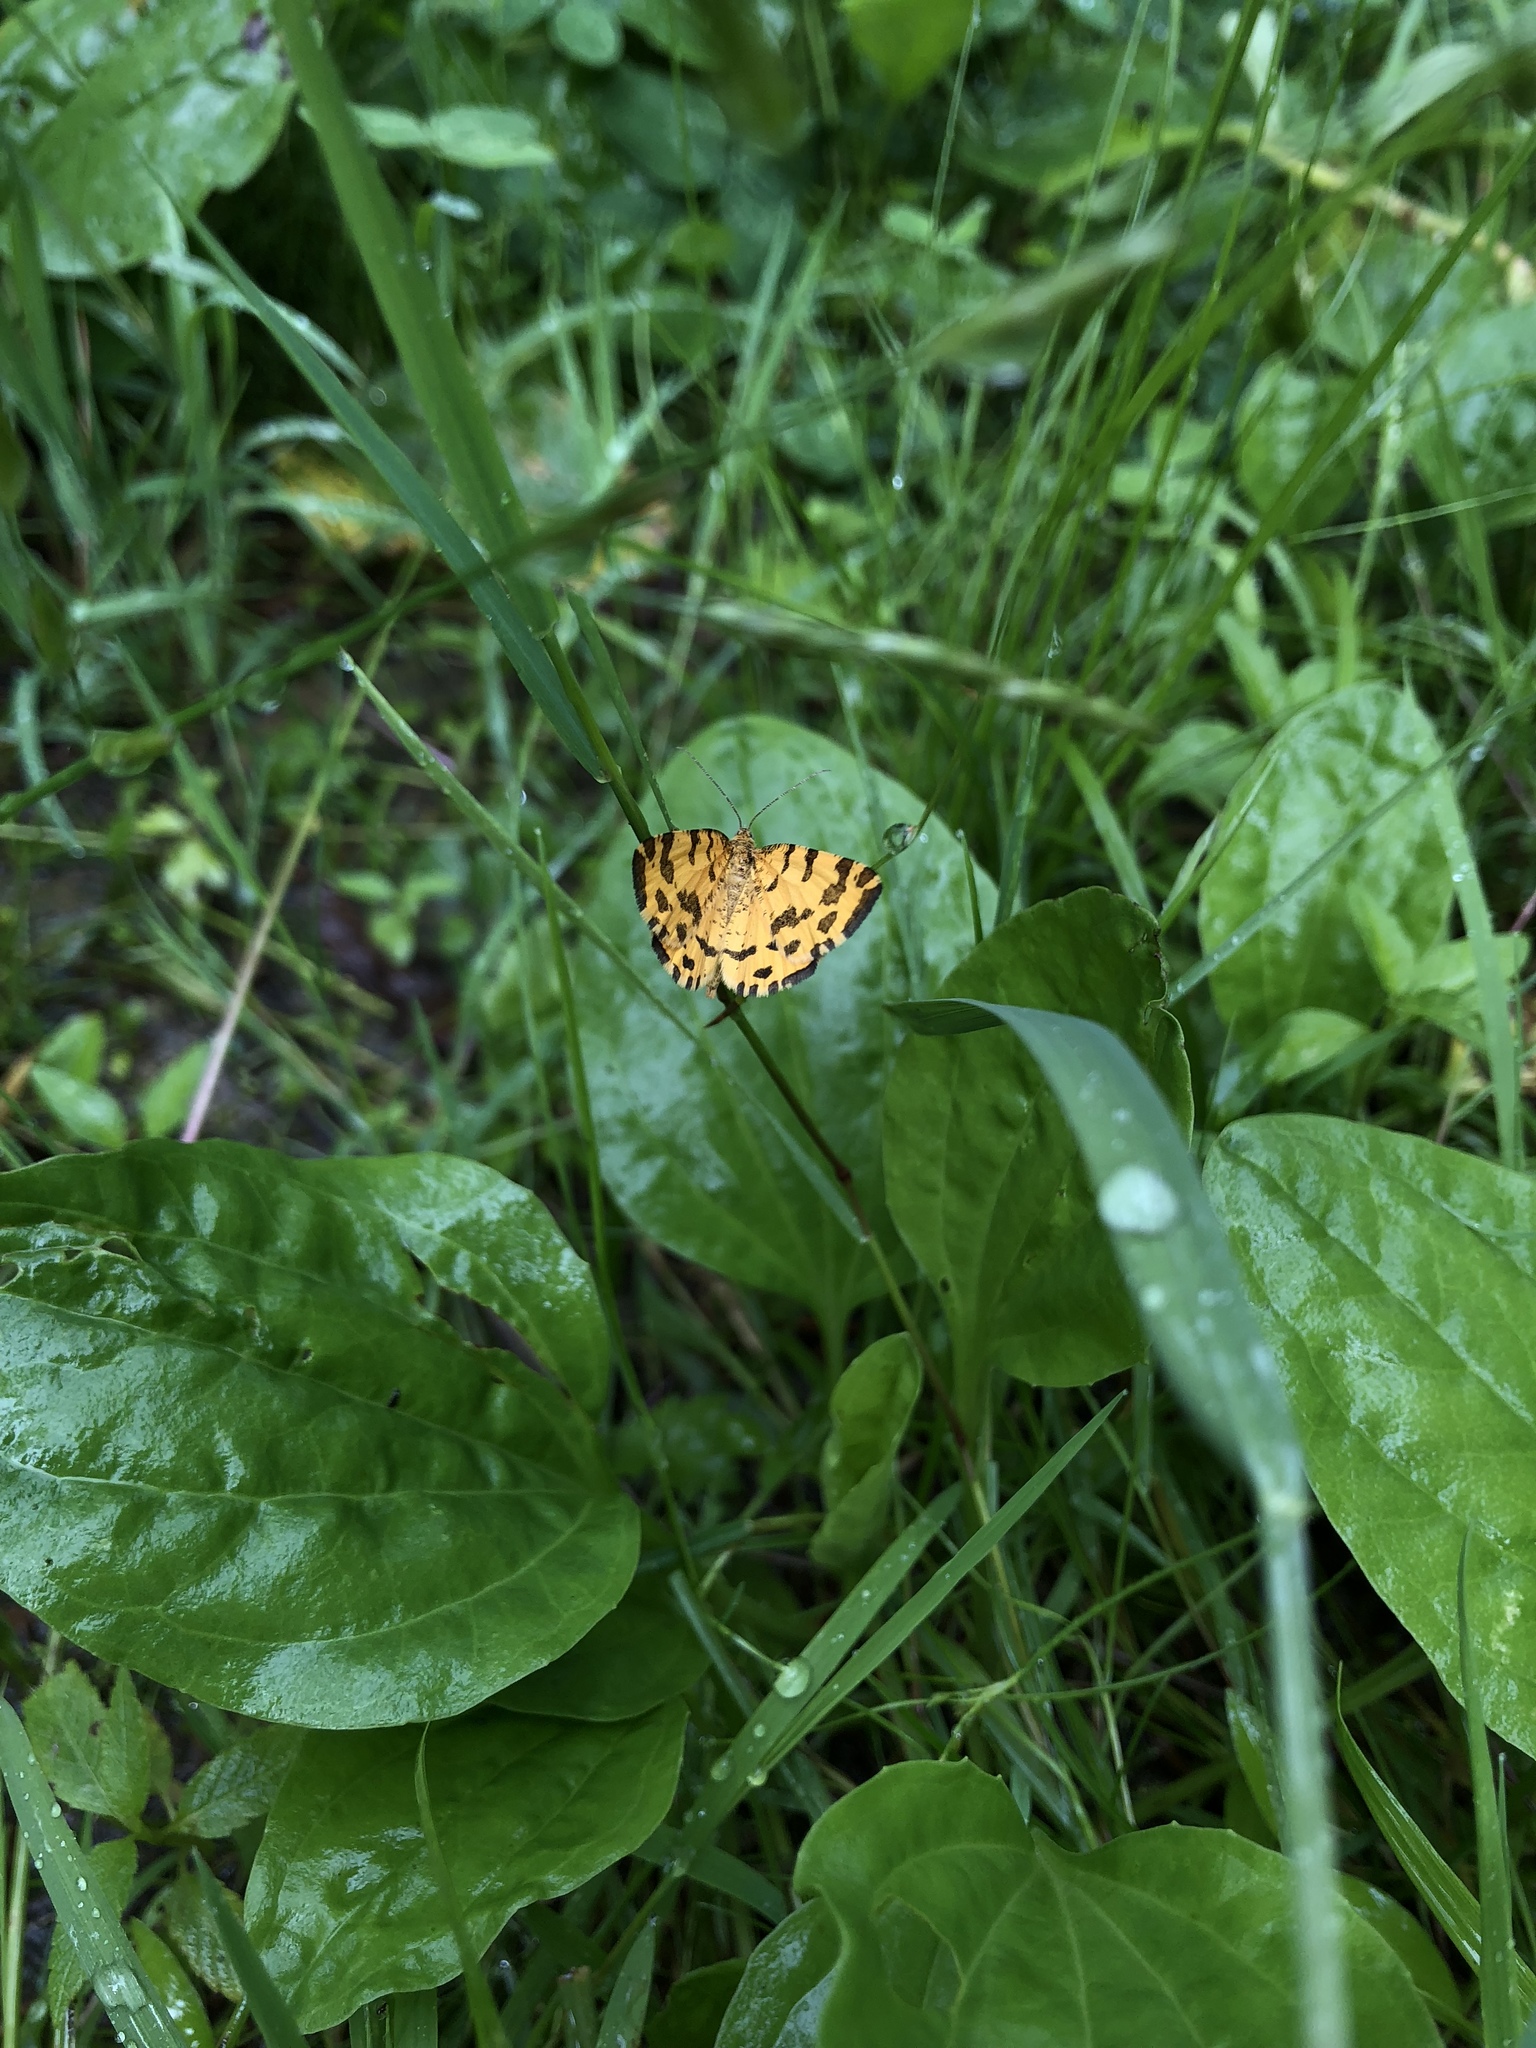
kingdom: Animalia
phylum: Arthropoda
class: Insecta
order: Lepidoptera
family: Geometridae
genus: Pseudopanthera
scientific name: Pseudopanthera macularia
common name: Speckled yellow
